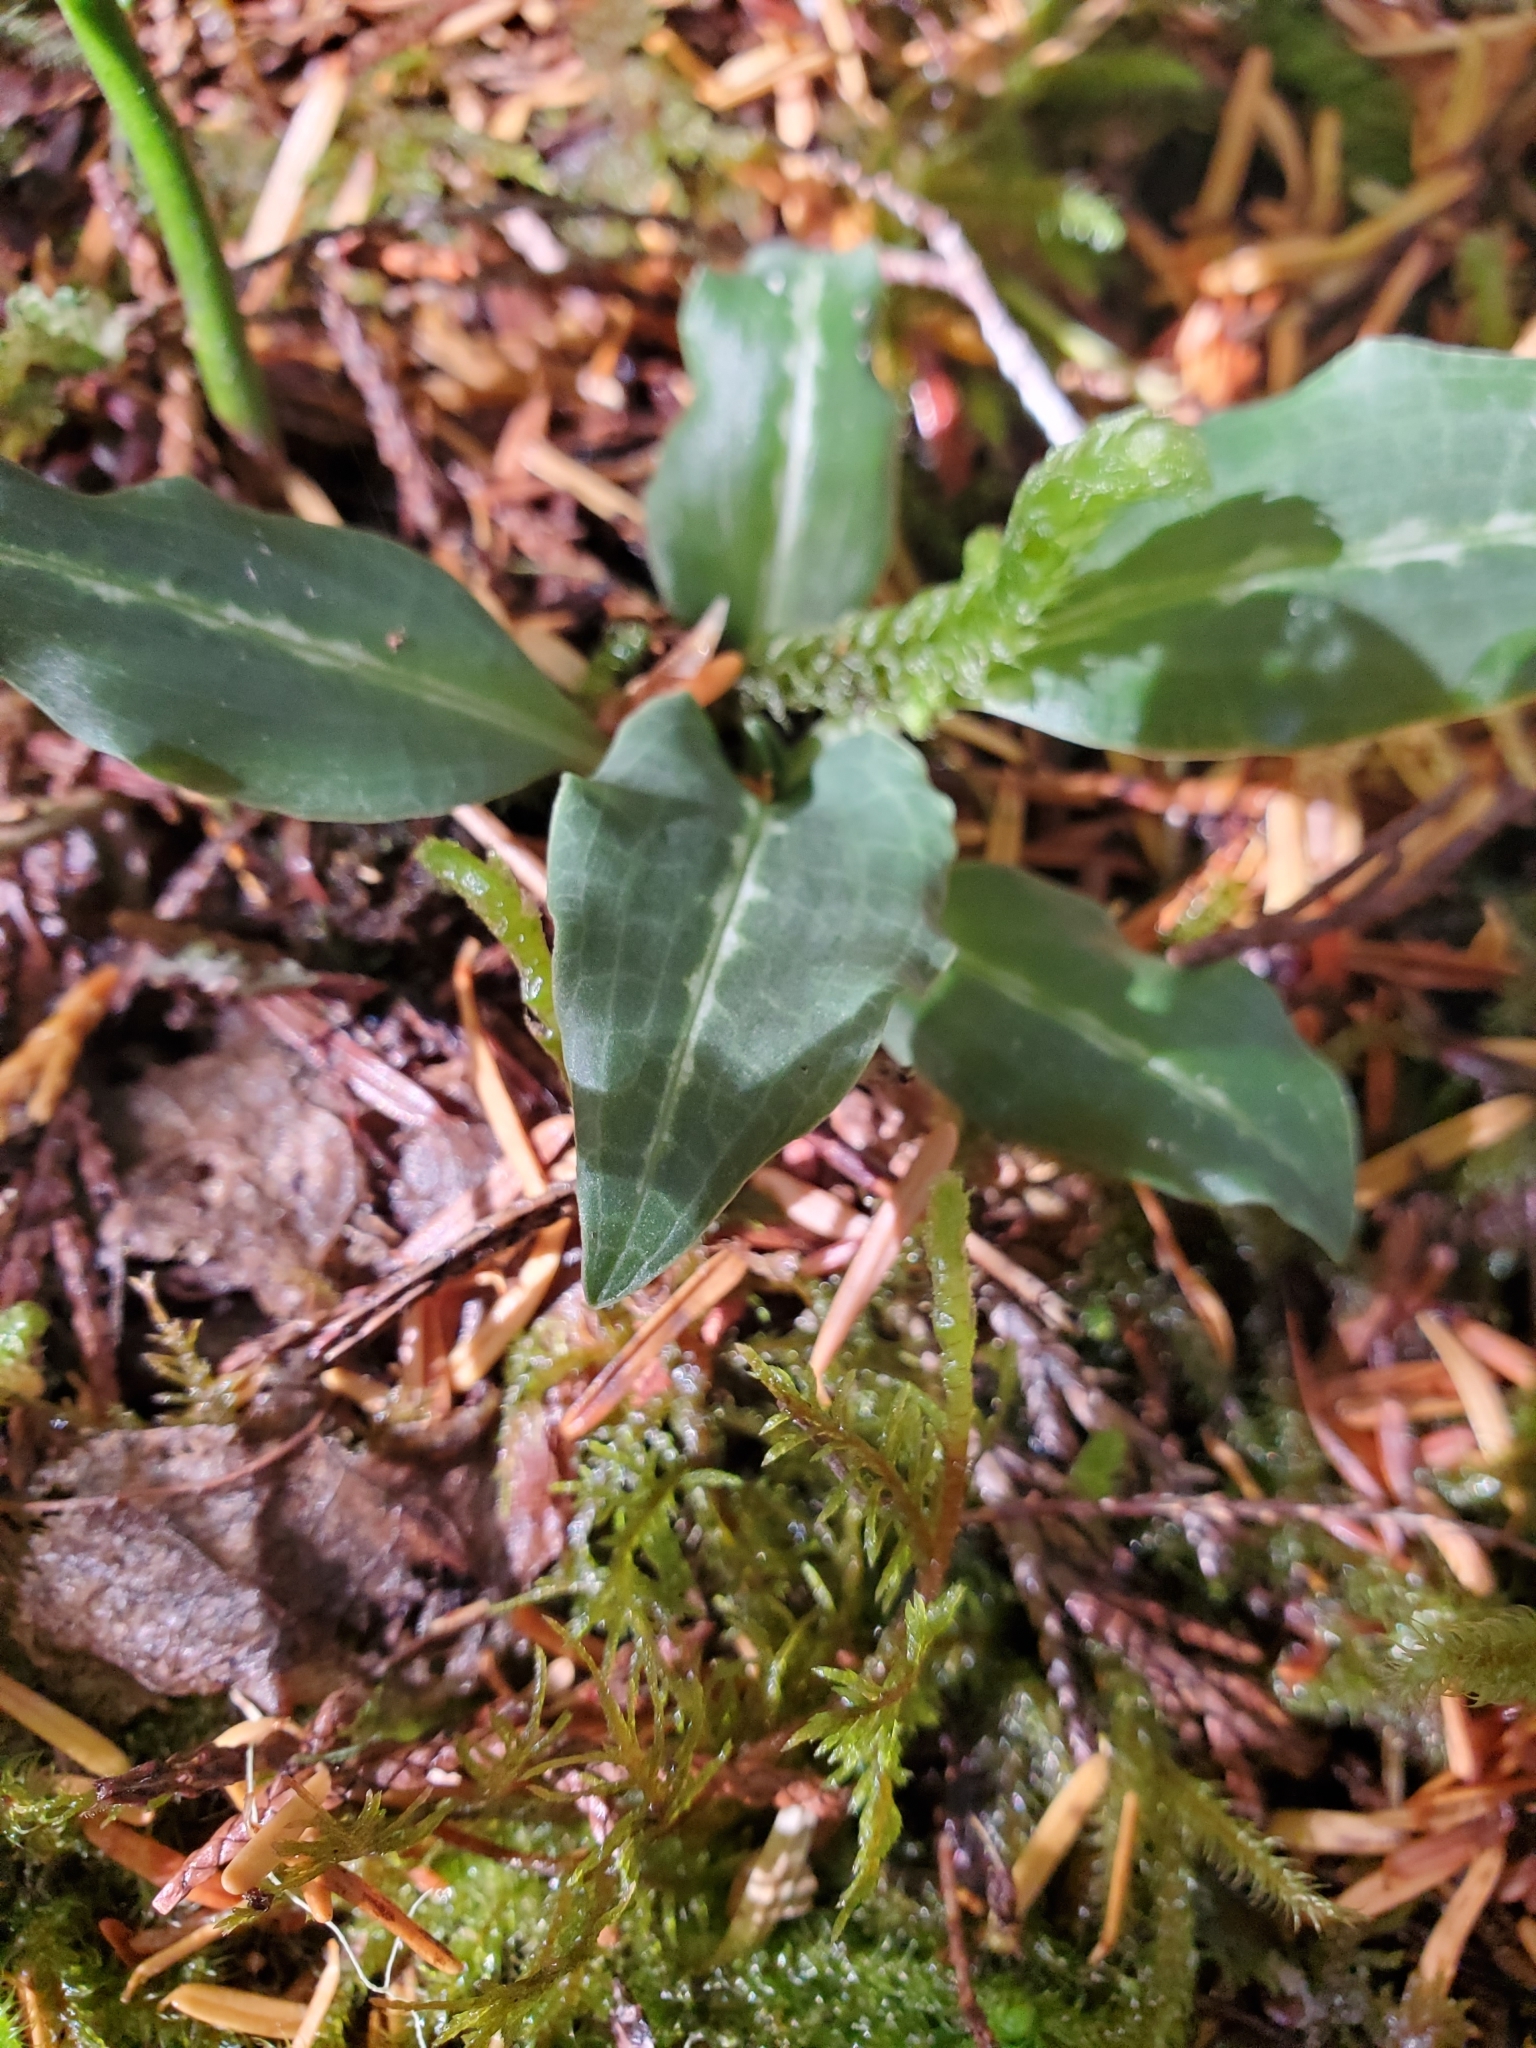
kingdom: Plantae
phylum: Tracheophyta
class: Liliopsida
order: Asparagales
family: Orchidaceae
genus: Goodyera
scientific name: Goodyera oblongifolia
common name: Giant rattlesnake-plantain
